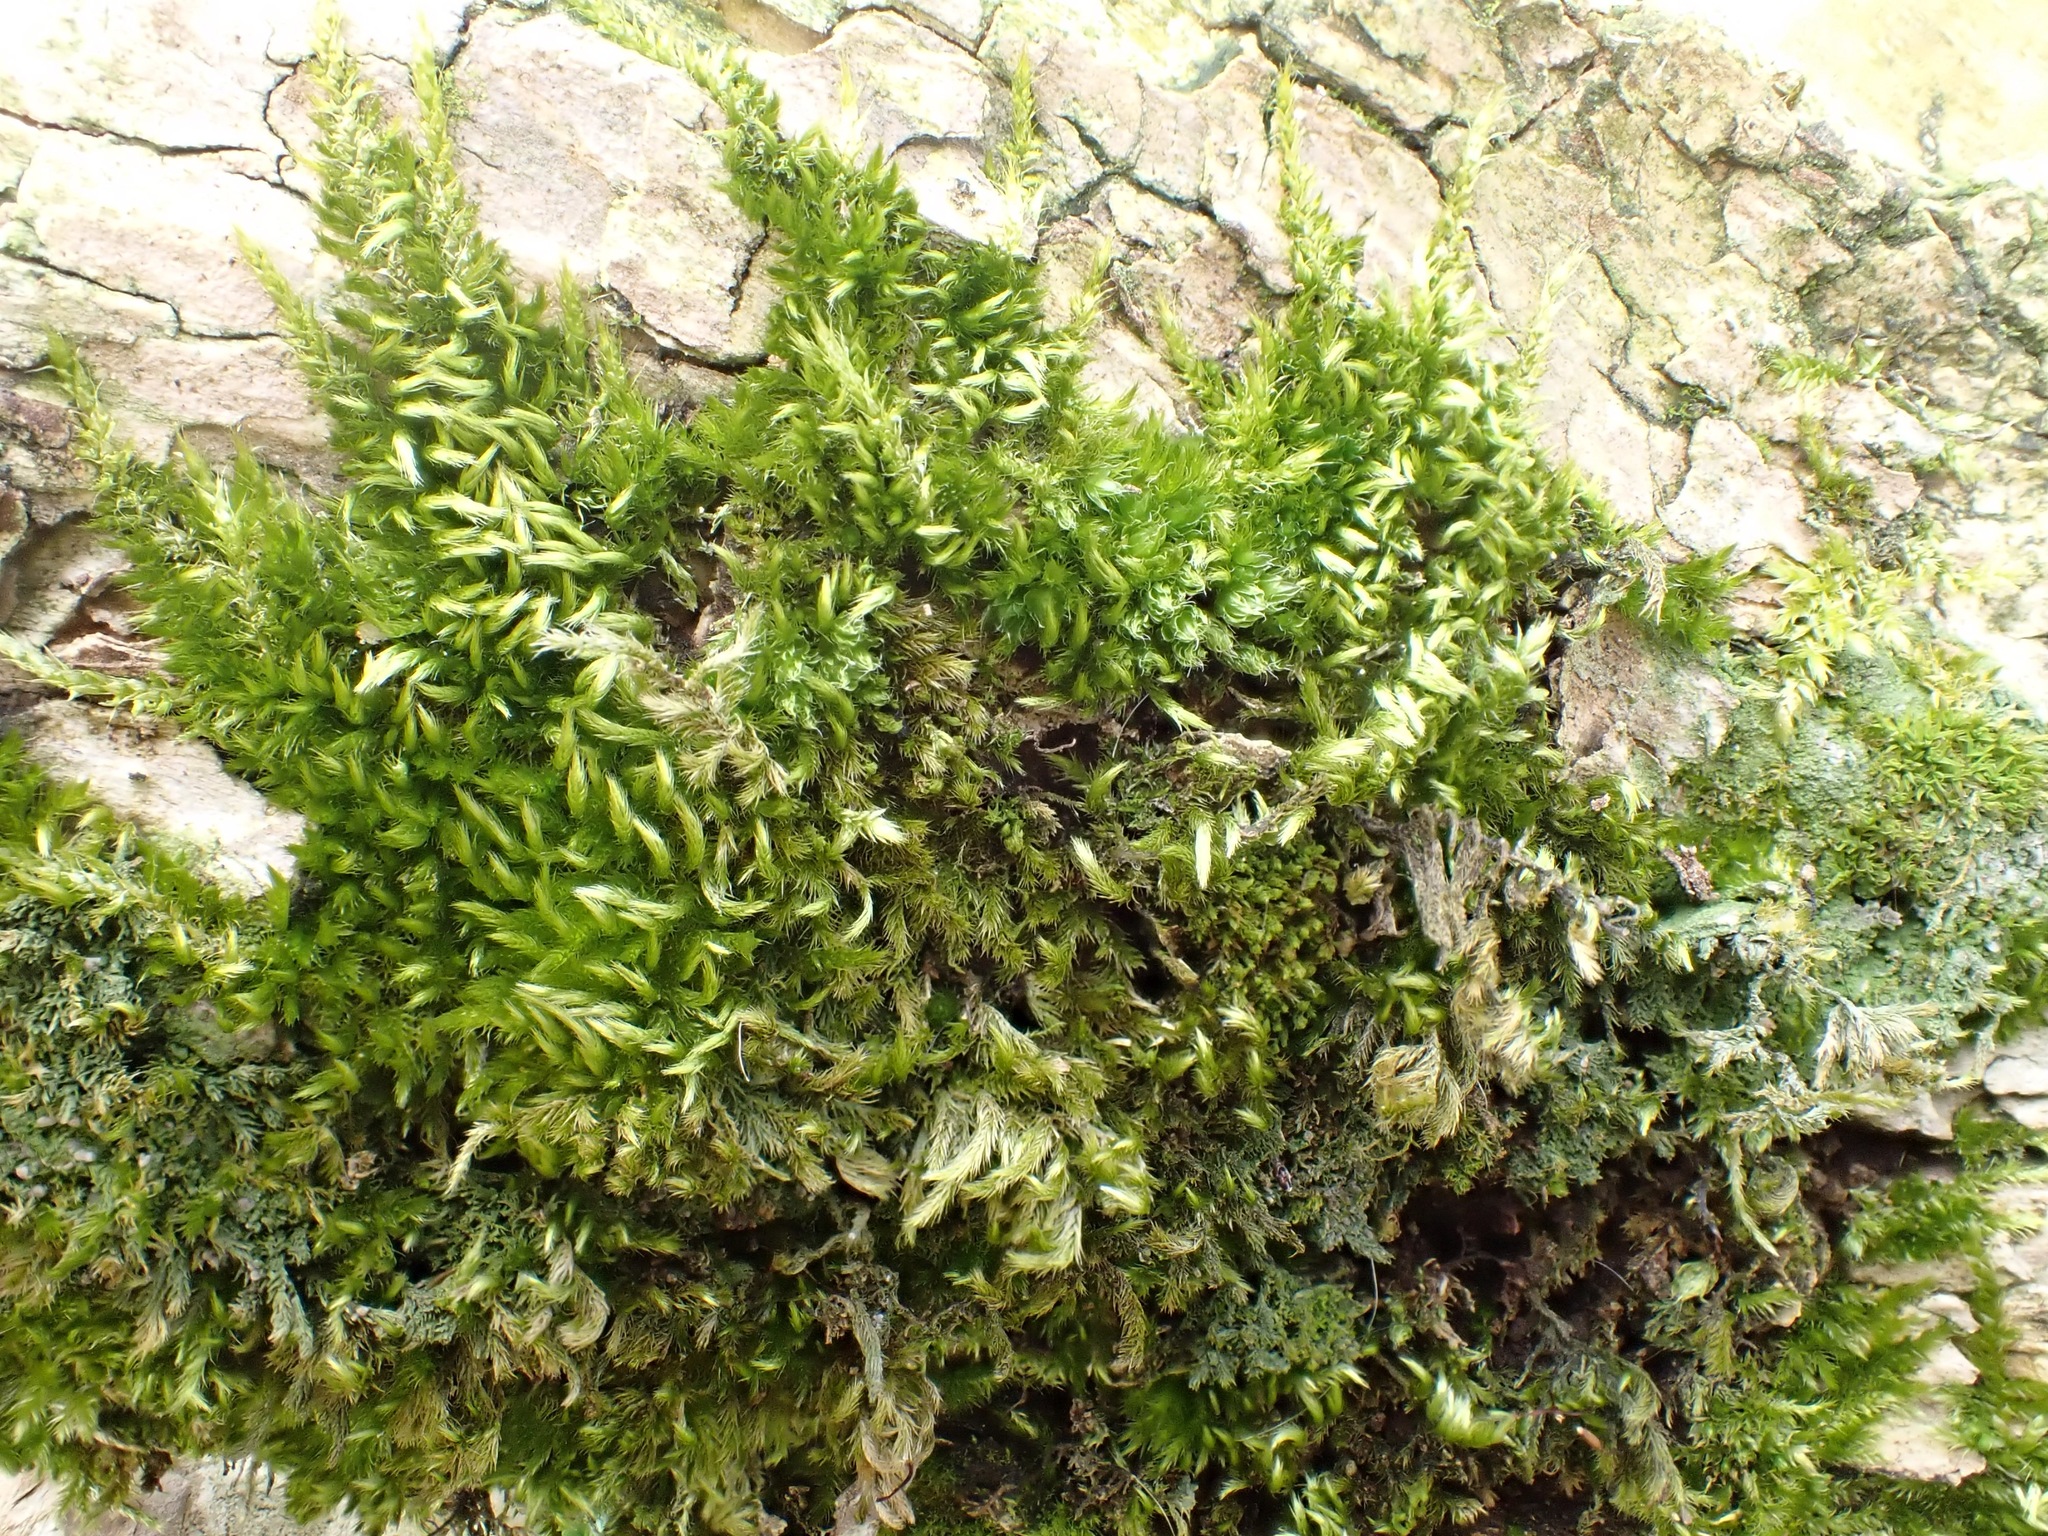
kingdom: Plantae
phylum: Bryophyta
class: Bryopsida
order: Hypnales
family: Brachytheciaceae
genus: Homalothecium
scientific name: Homalothecium sericeum
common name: Silky wall feather-moss
